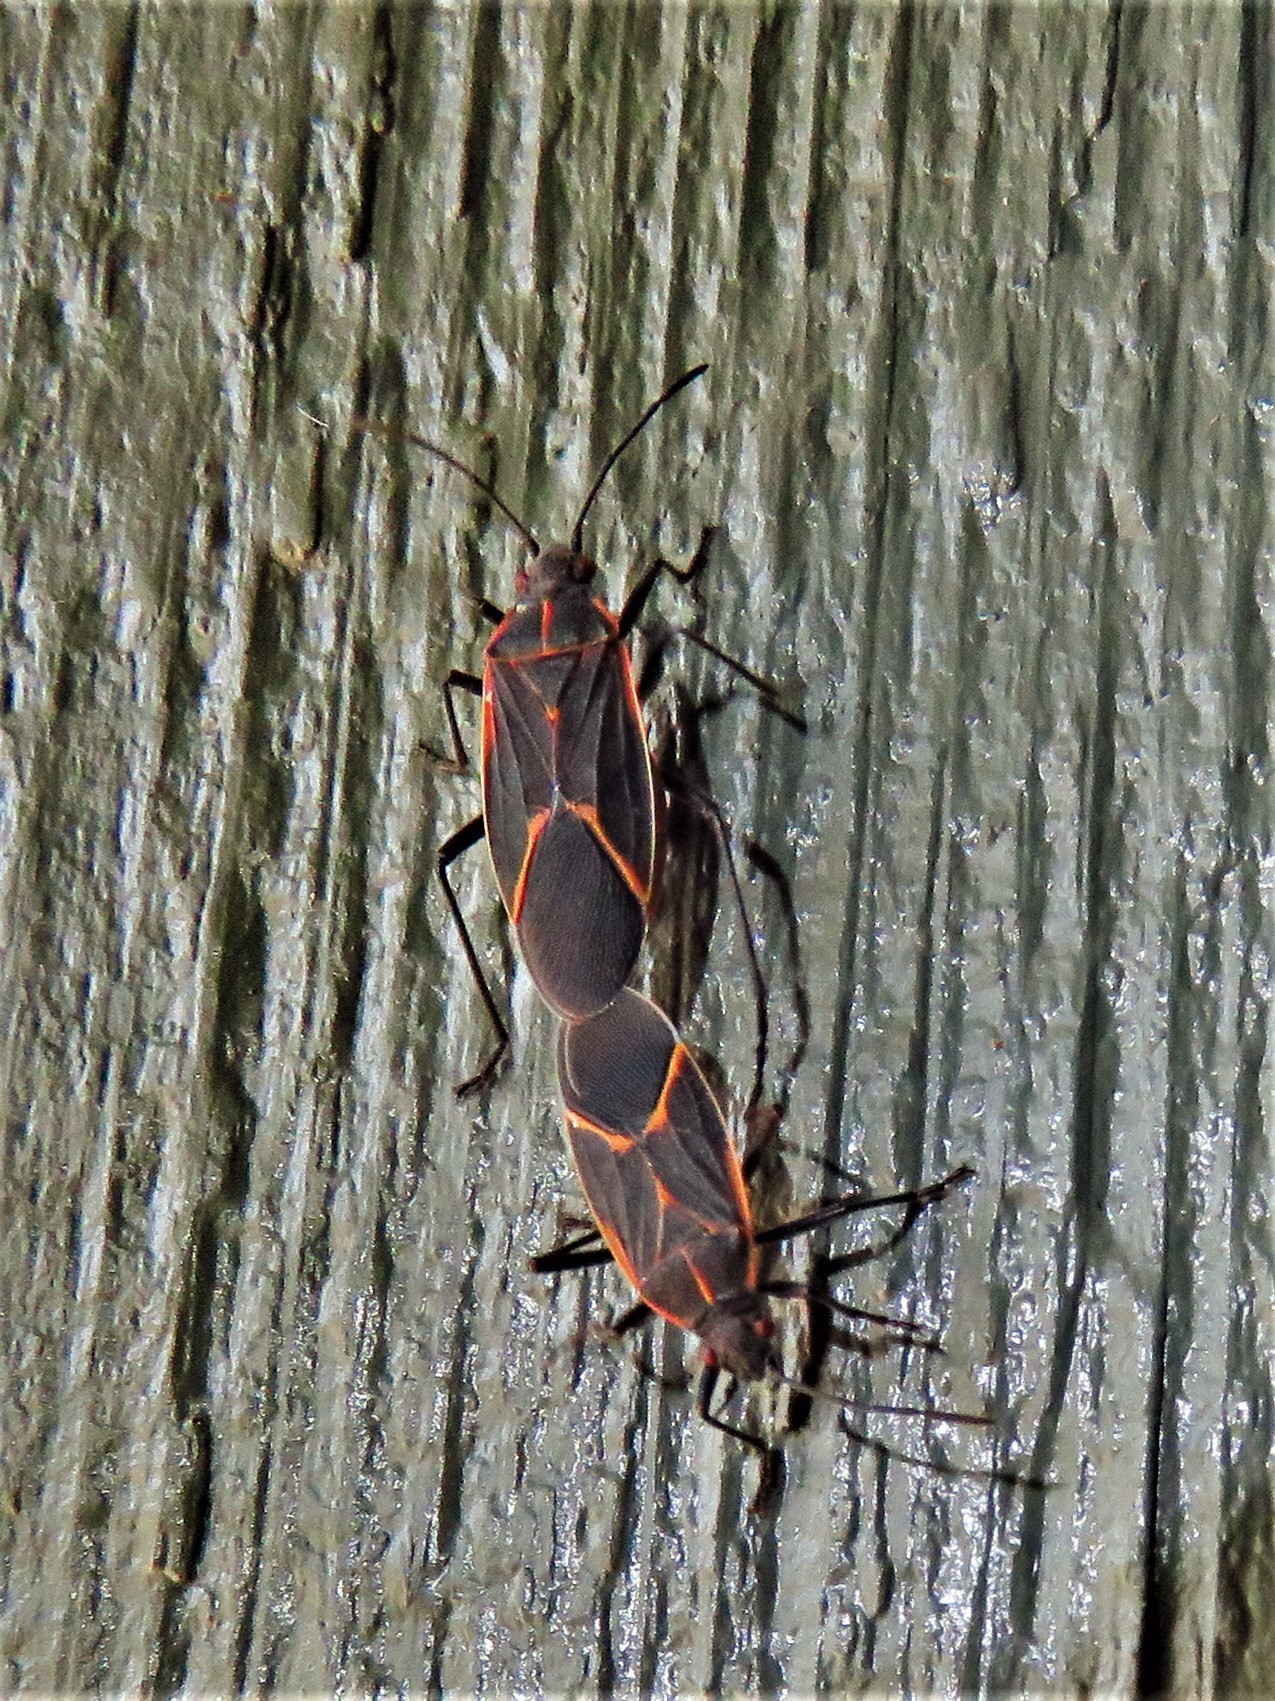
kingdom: Animalia
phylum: Arthropoda
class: Insecta
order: Hemiptera
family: Rhopalidae
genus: Boisea
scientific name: Boisea trivittata
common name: Boxelder bug
